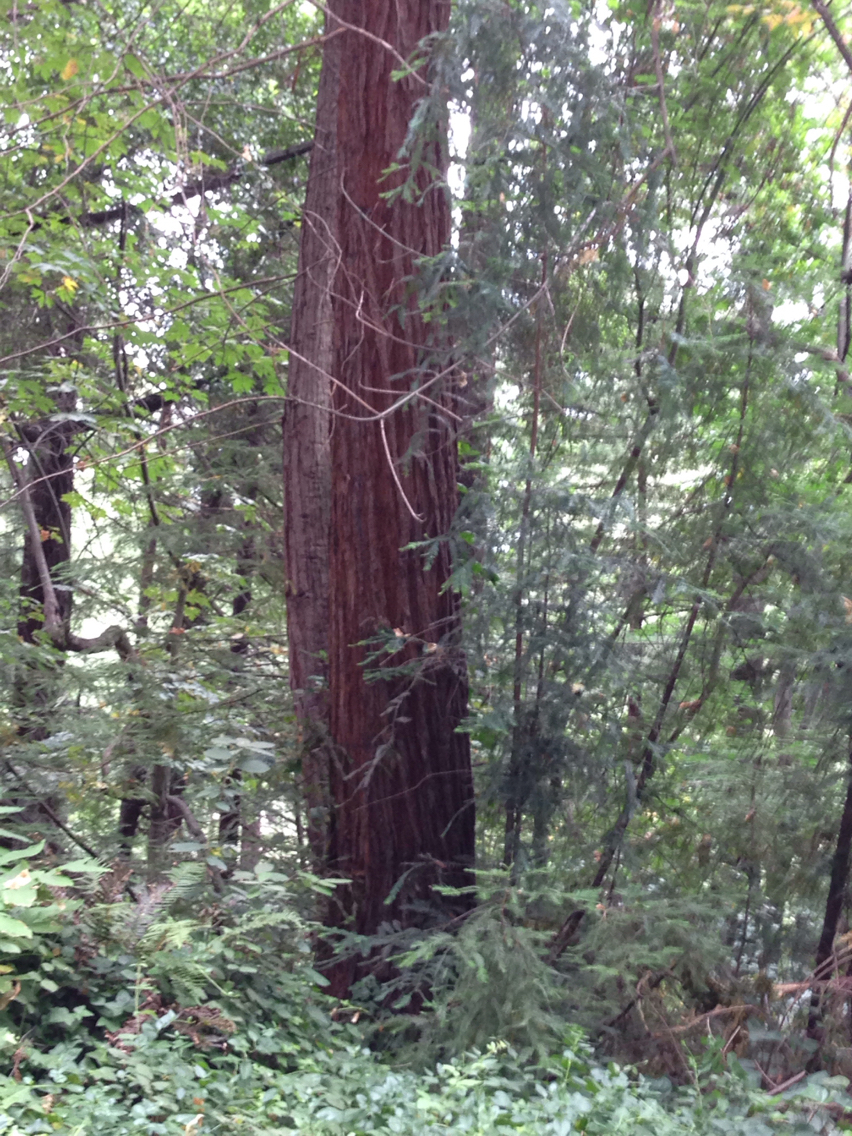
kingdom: Plantae
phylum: Tracheophyta
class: Pinopsida
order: Pinales
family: Cupressaceae
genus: Sequoia
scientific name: Sequoia sempervirens
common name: Coast redwood
